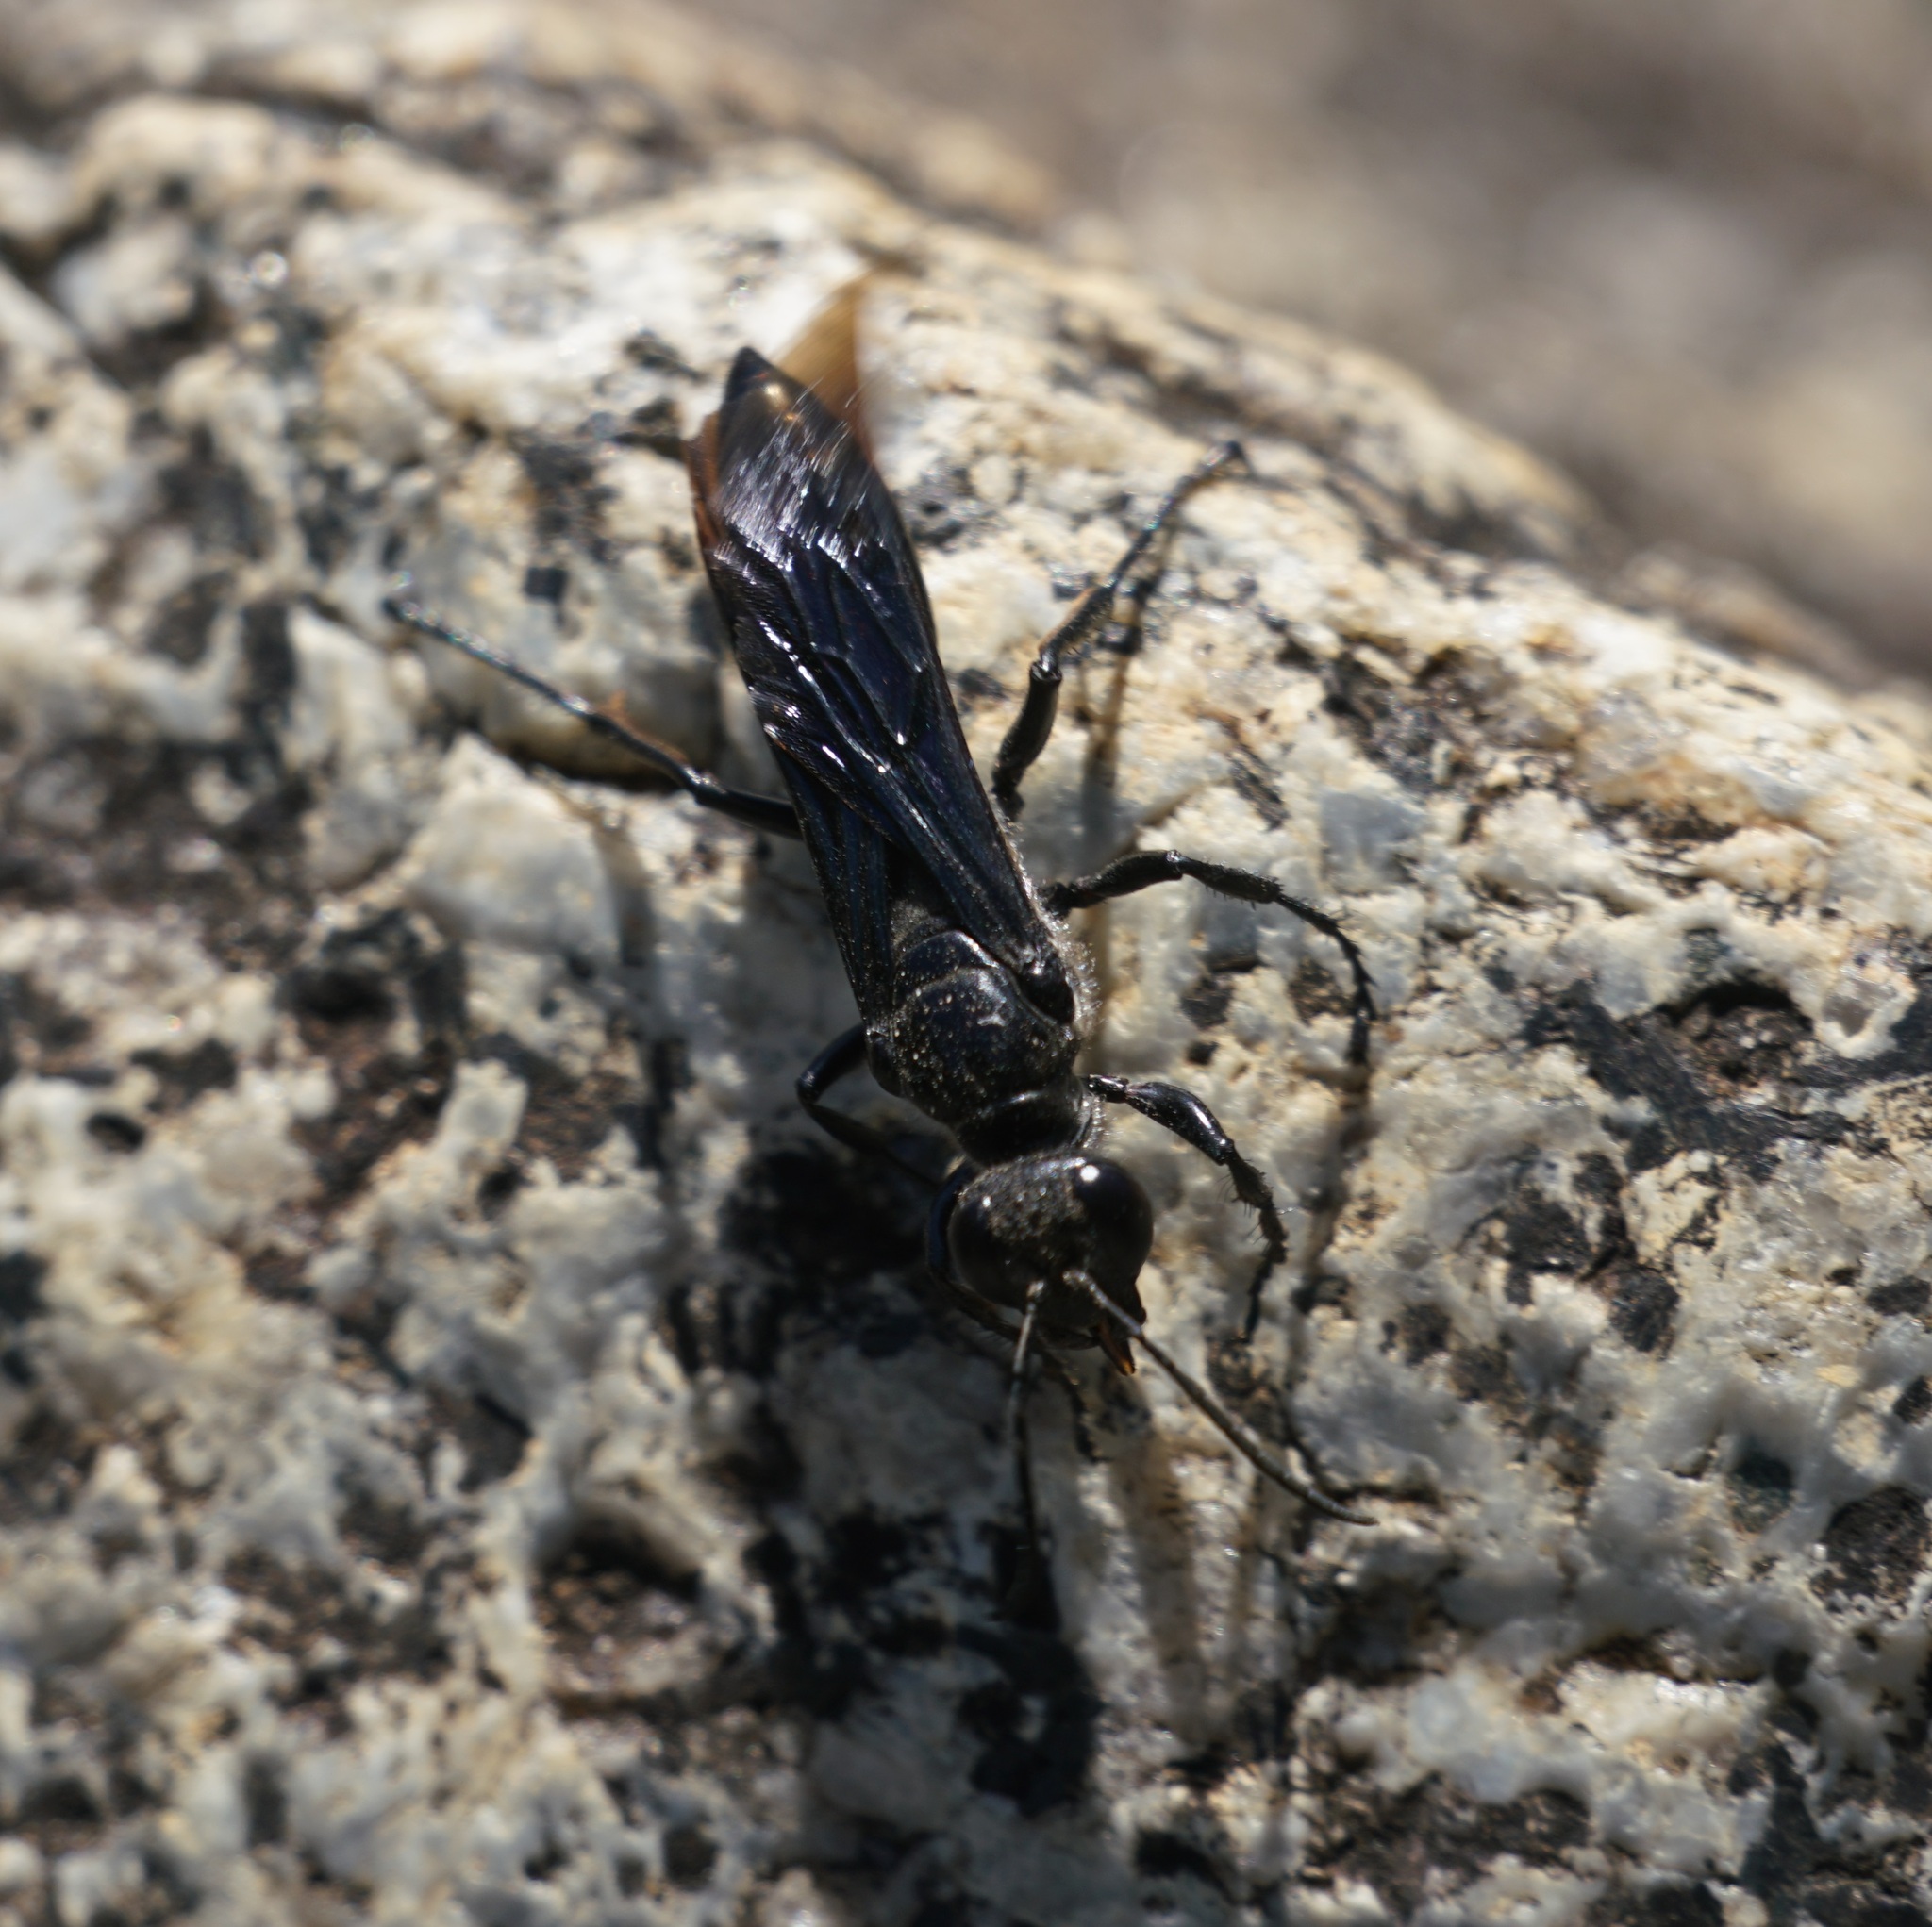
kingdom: Animalia
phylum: Arthropoda
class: Insecta
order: Hymenoptera
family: Sphecidae
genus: Sphex
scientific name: Sphex fumipennis
